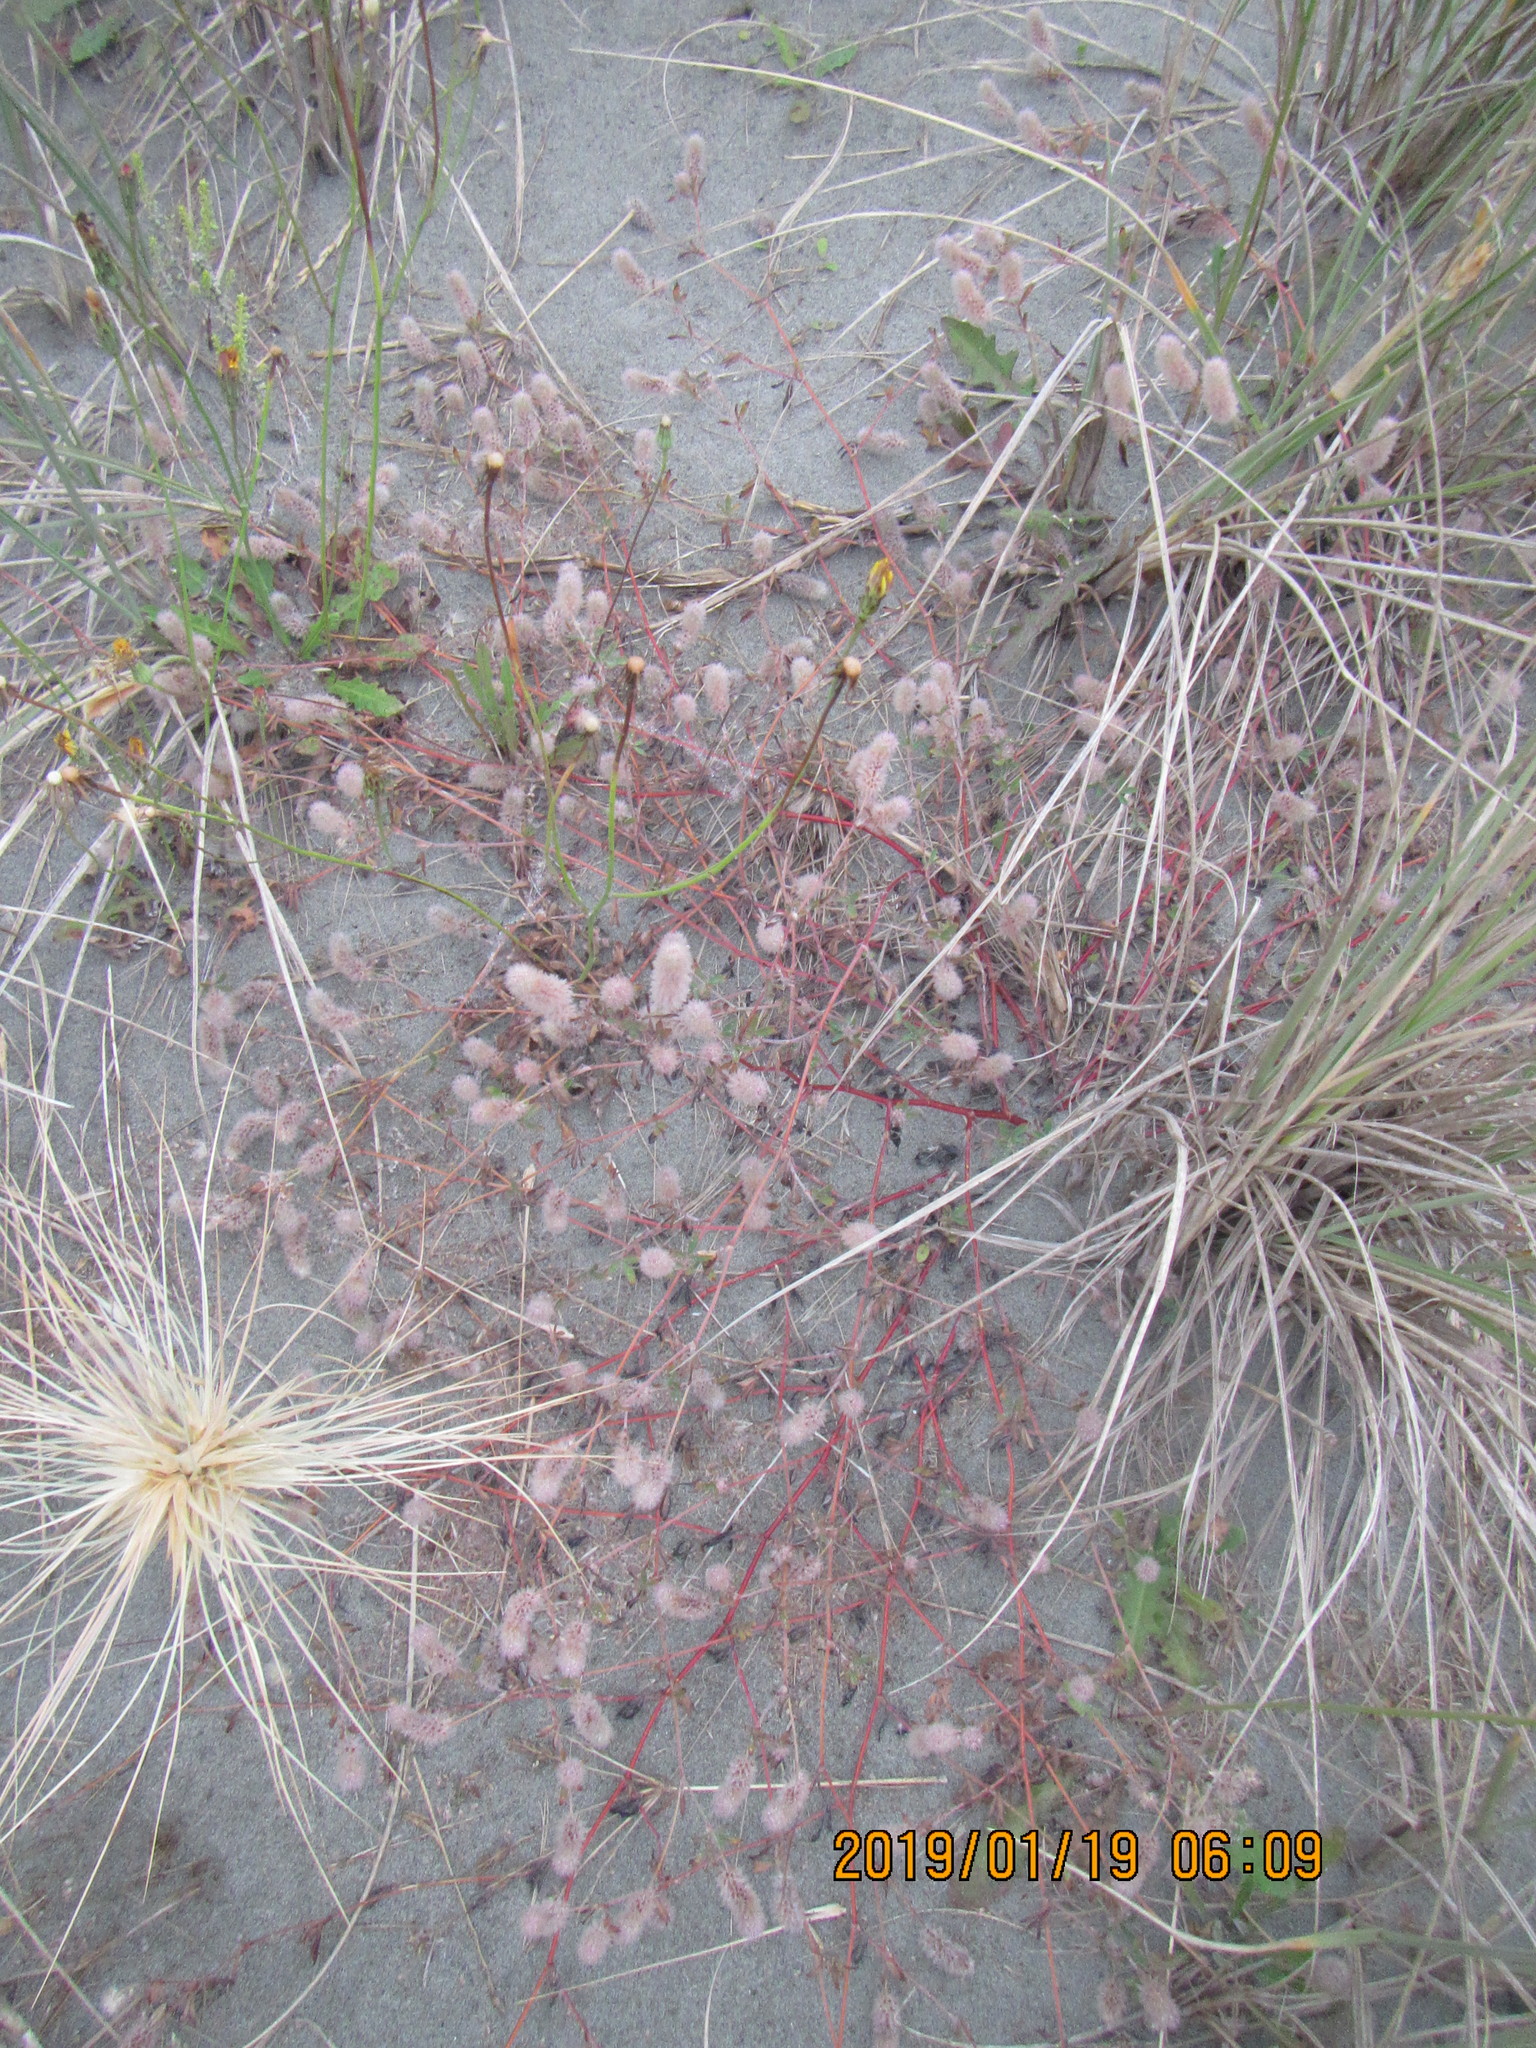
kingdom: Plantae
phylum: Tracheophyta
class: Magnoliopsida
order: Fabales
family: Fabaceae
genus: Trifolium
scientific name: Trifolium arvense
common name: Hare's-foot clover
